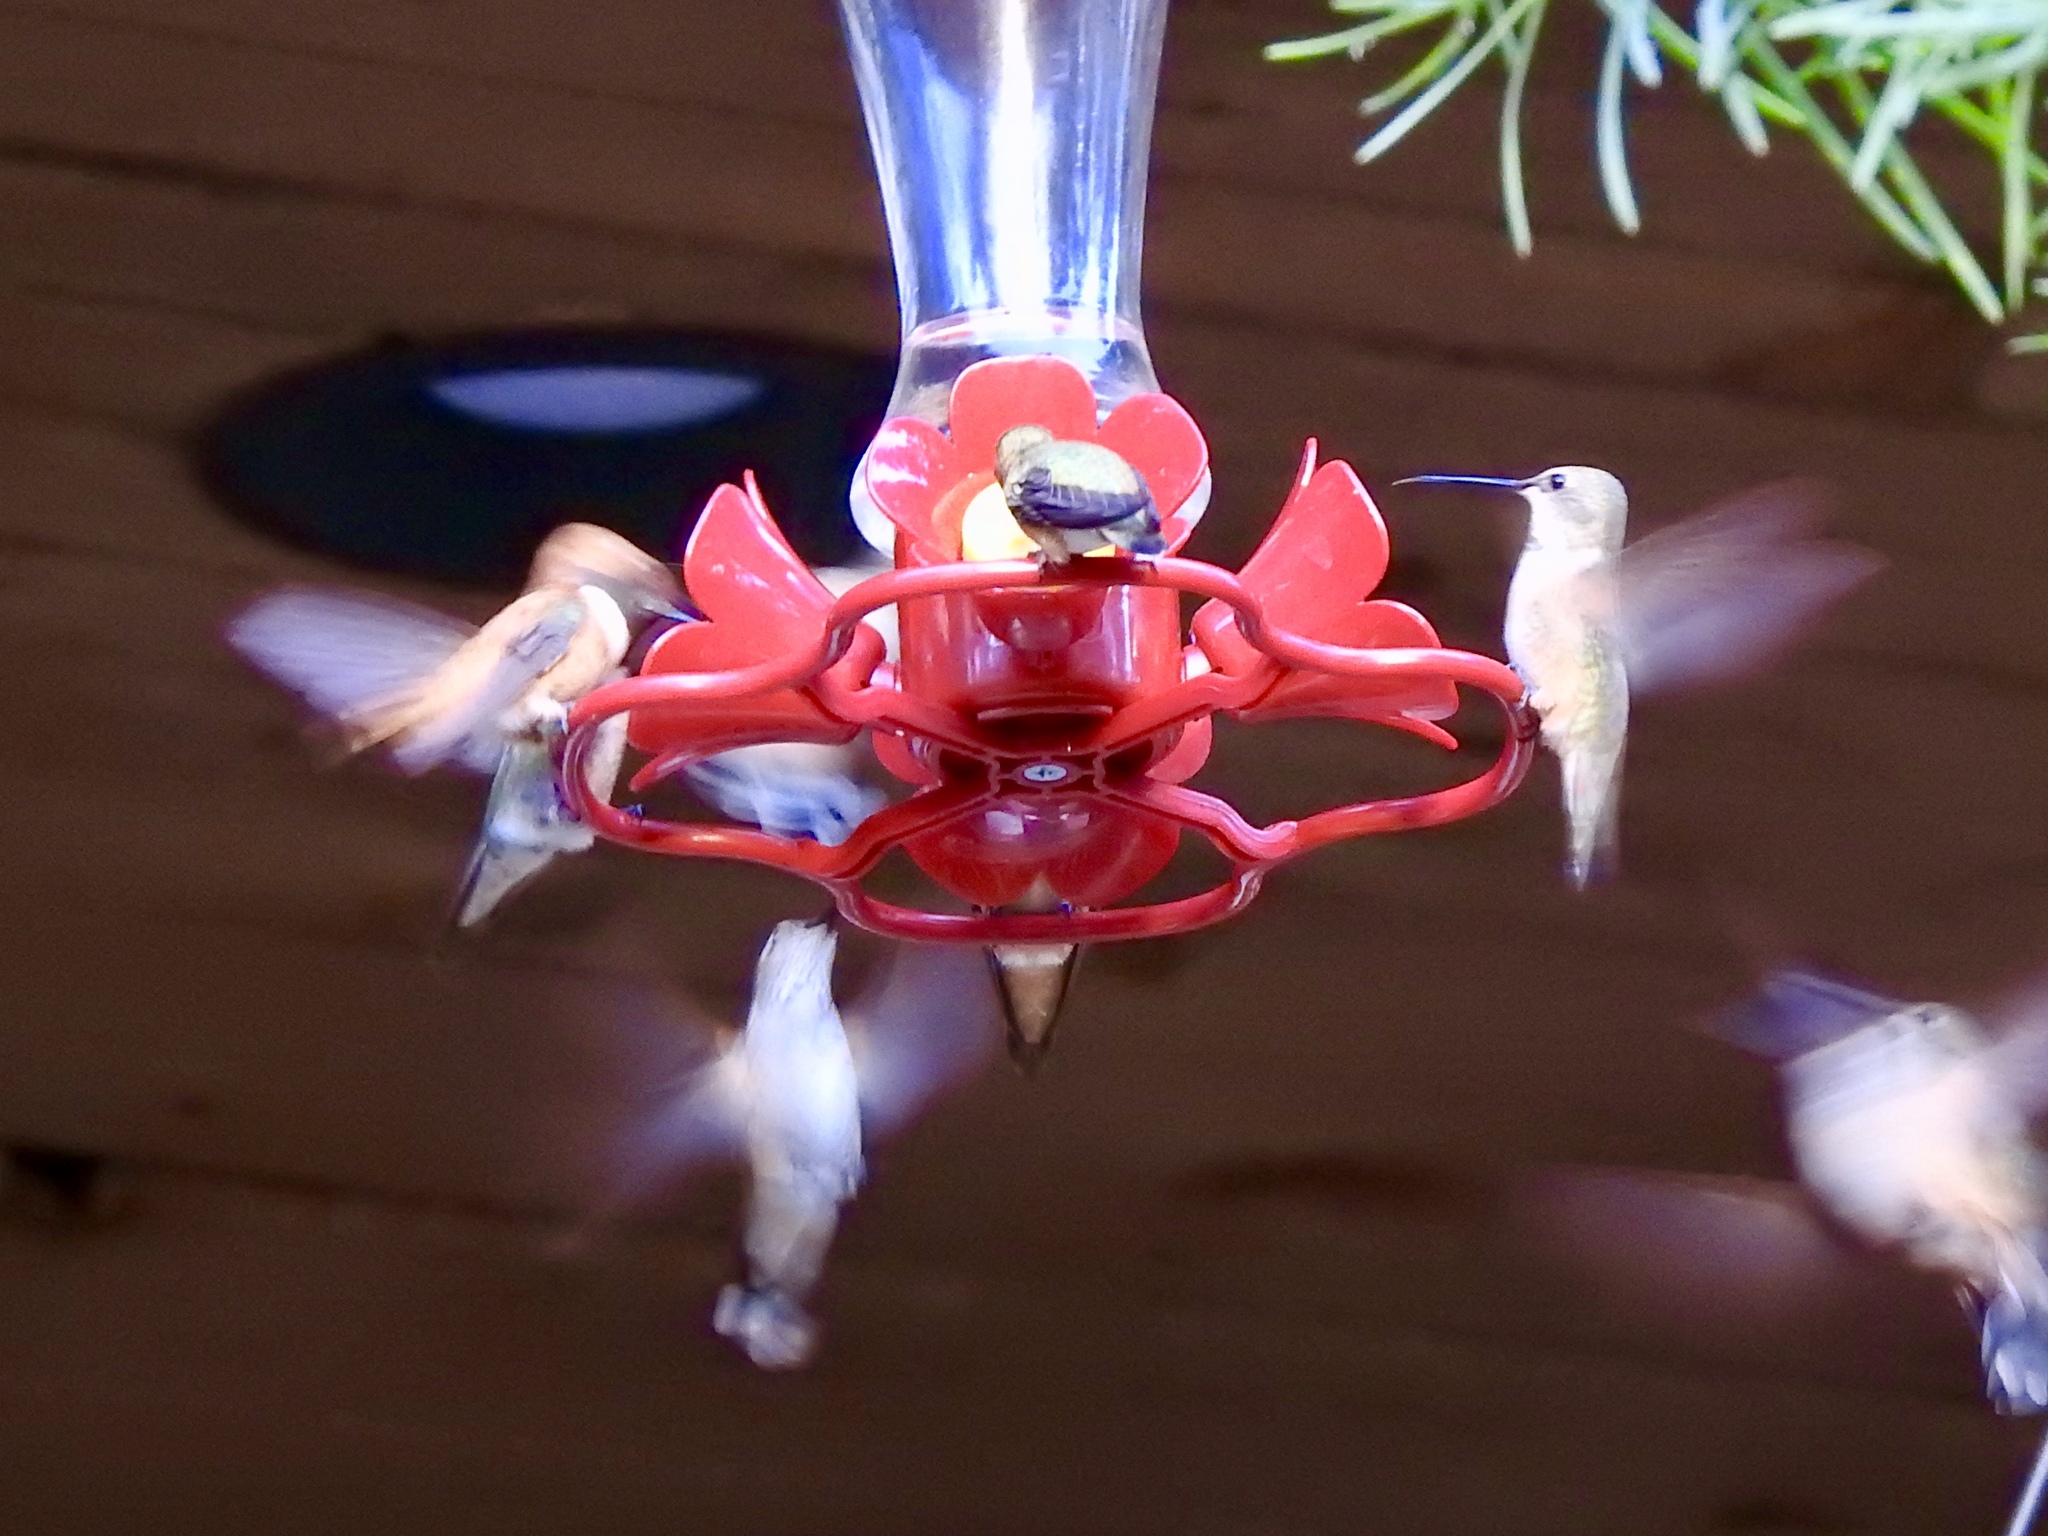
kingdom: Animalia
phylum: Chordata
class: Aves
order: Apodiformes
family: Trochilidae
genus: Archilochus
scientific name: Archilochus alexandri
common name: Black-chinned hummingbird
